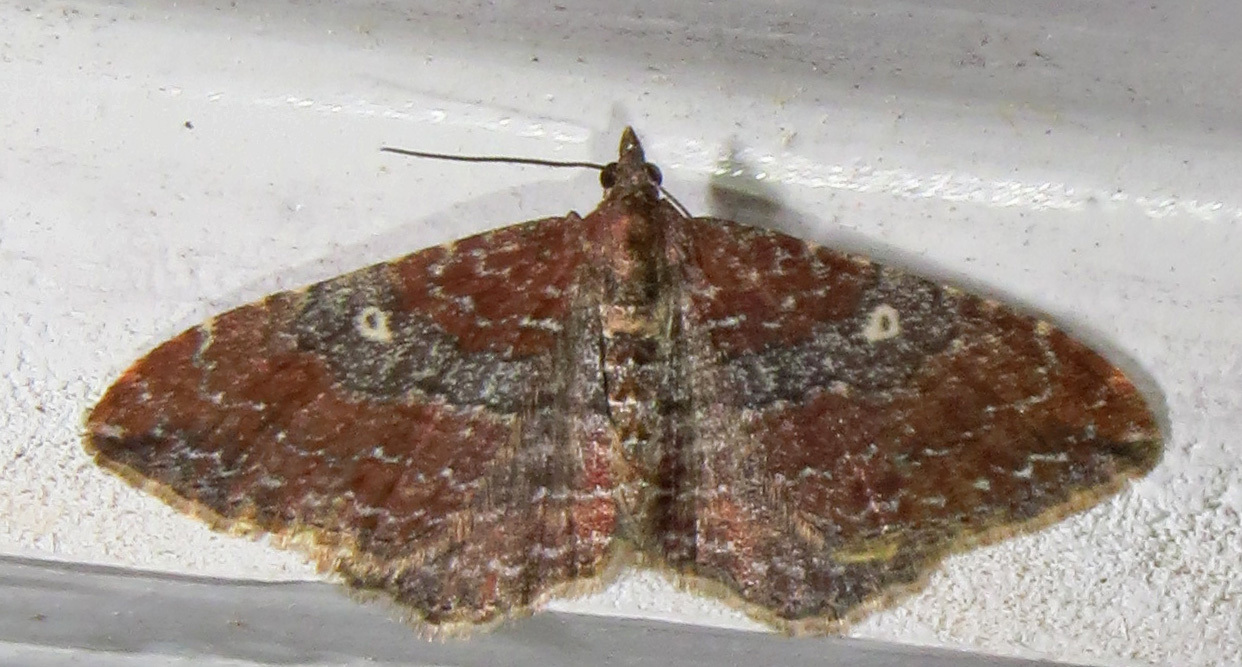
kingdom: Animalia
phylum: Arthropoda
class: Insecta
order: Lepidoptera
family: Geometridae
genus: Orthonama
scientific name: Orthonama obstipata
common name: The gem
